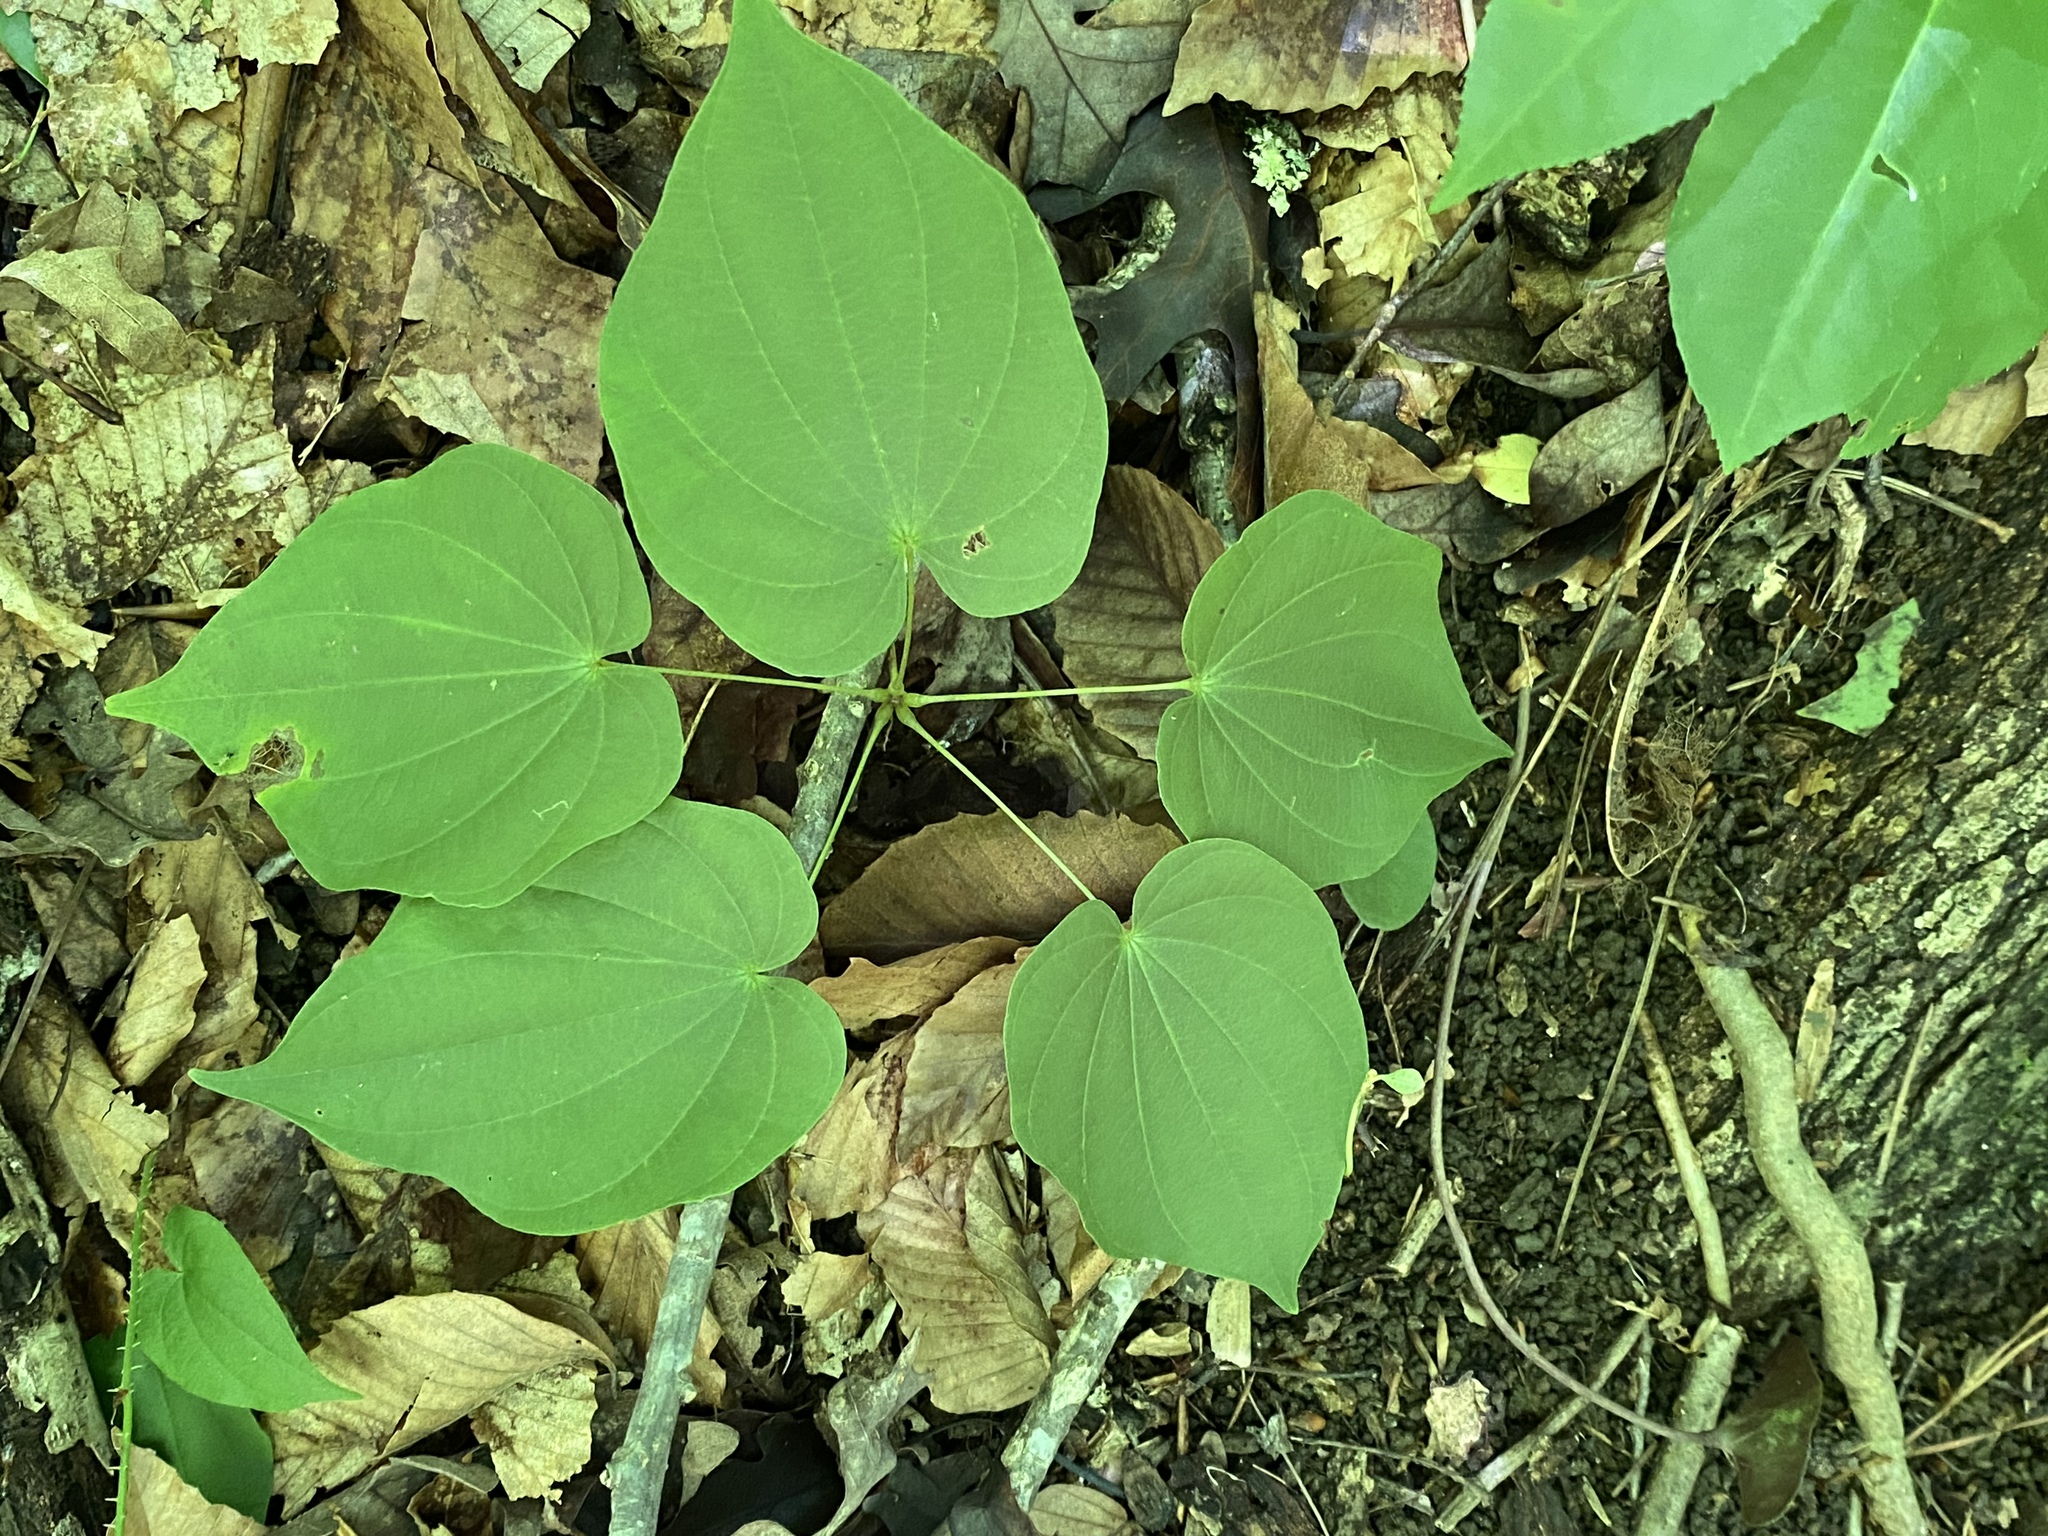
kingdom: Plantae
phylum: Tracheophyta
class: Liliopsida
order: Dioscoreales
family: Dioscoreaceae
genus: Dioscorea
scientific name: Dioscorea villosa
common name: Wild yam
